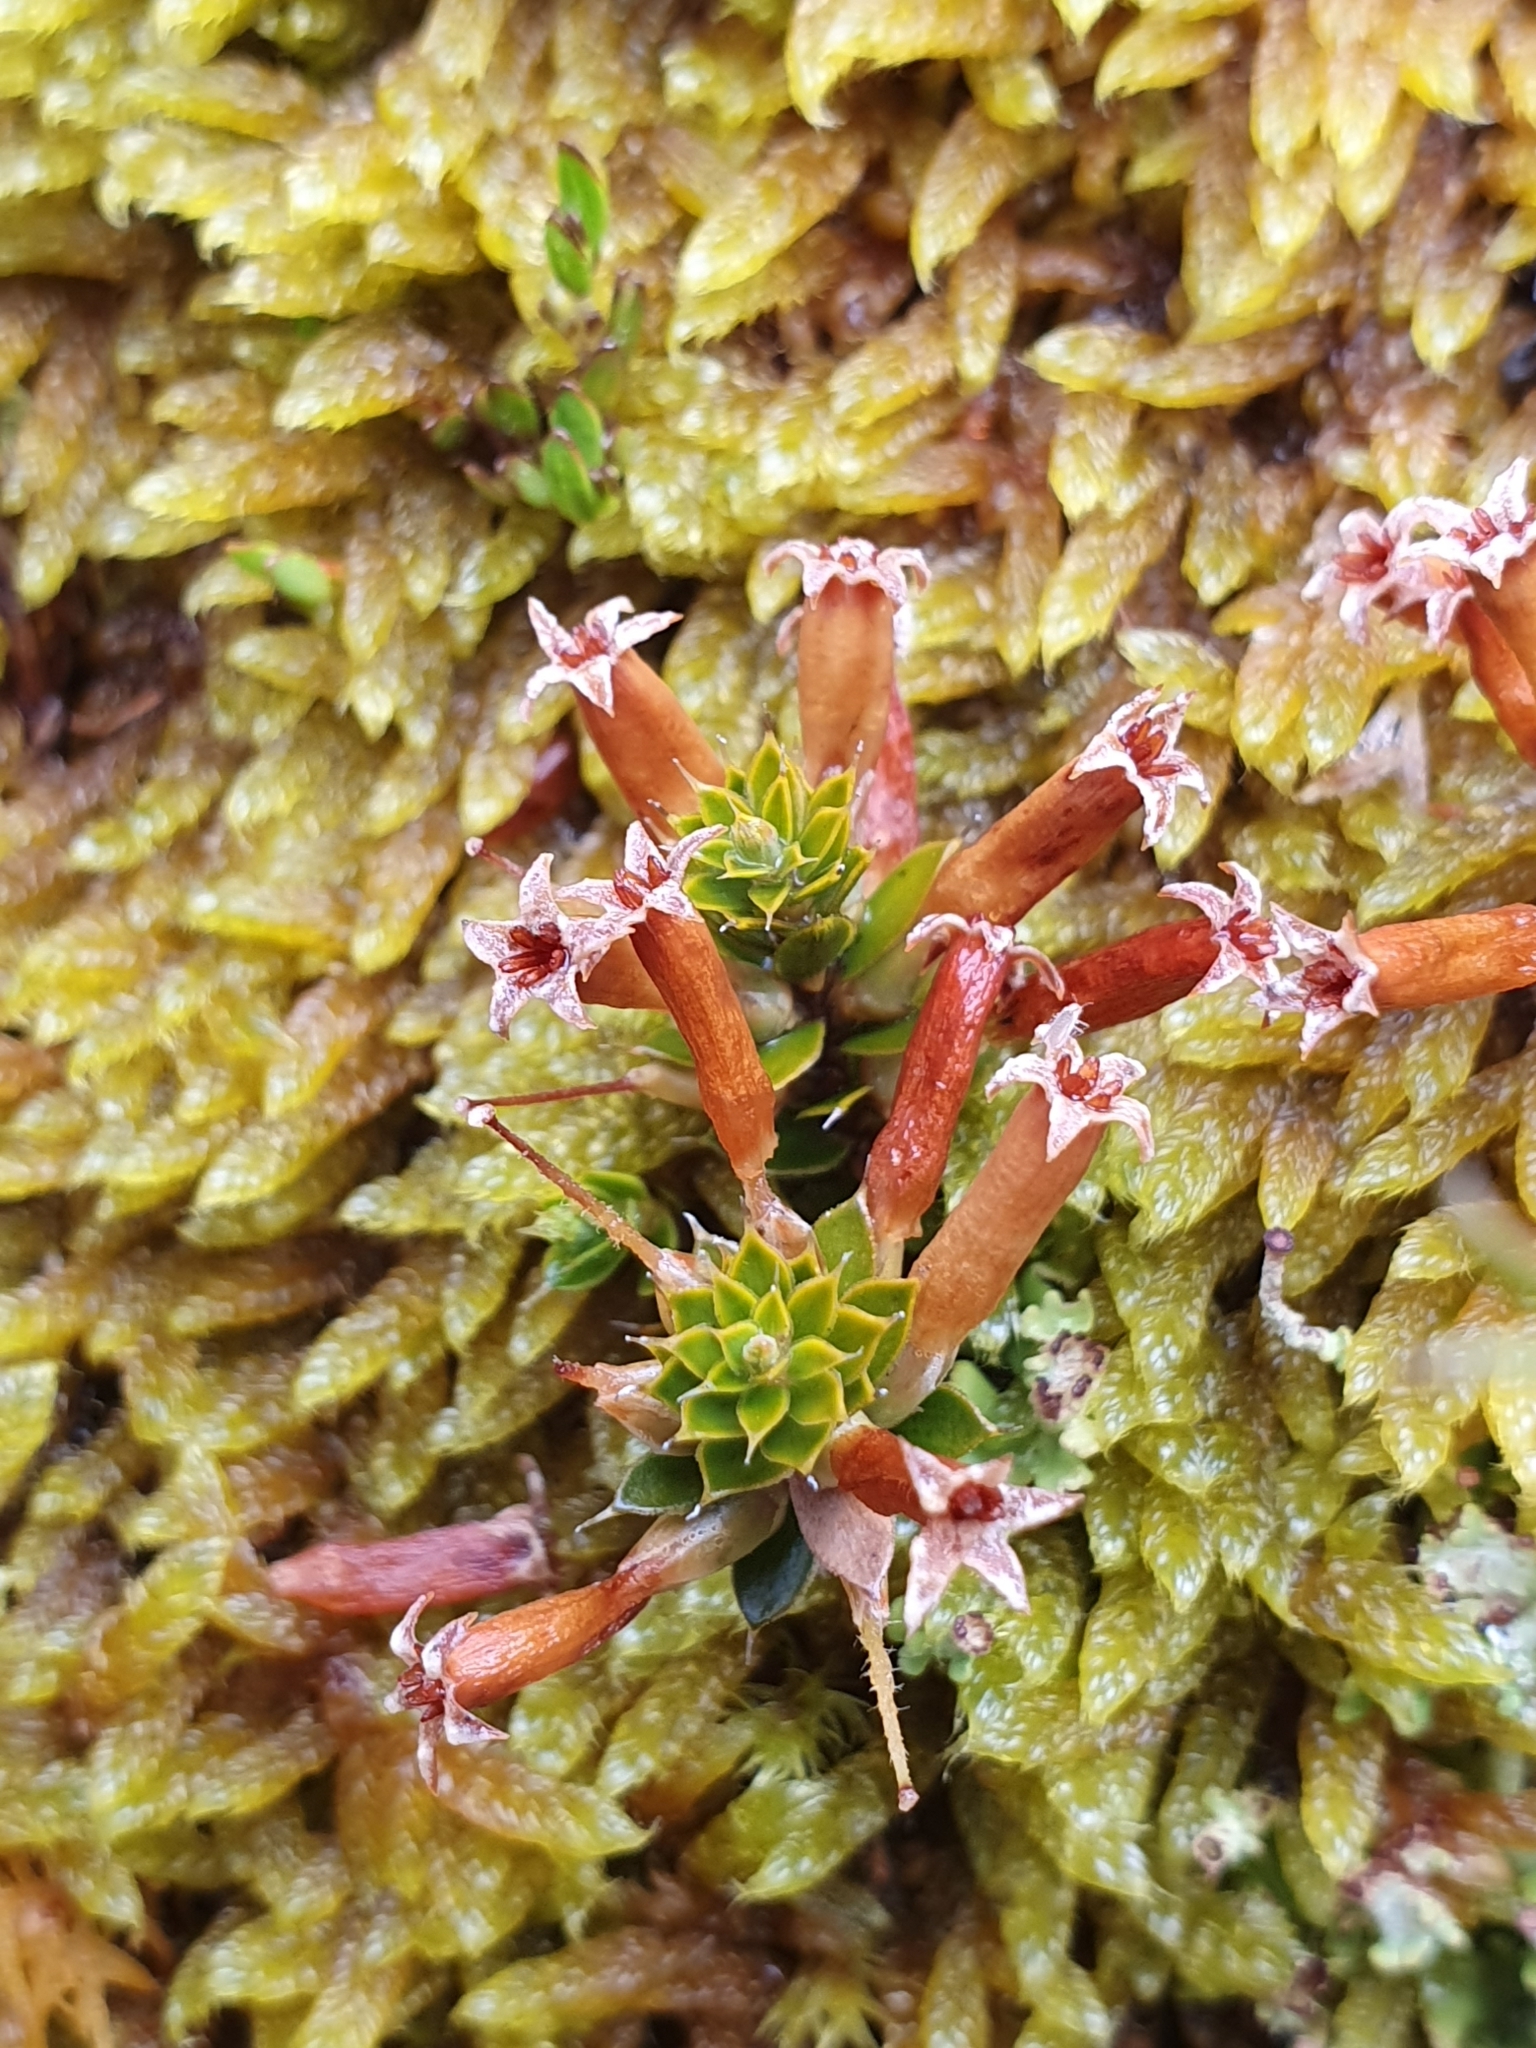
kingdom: Plantae
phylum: Tracheophyta
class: Magnoliopsida
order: Ericales
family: Ericaceae
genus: Styphelia
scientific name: Styphelia nesophila
